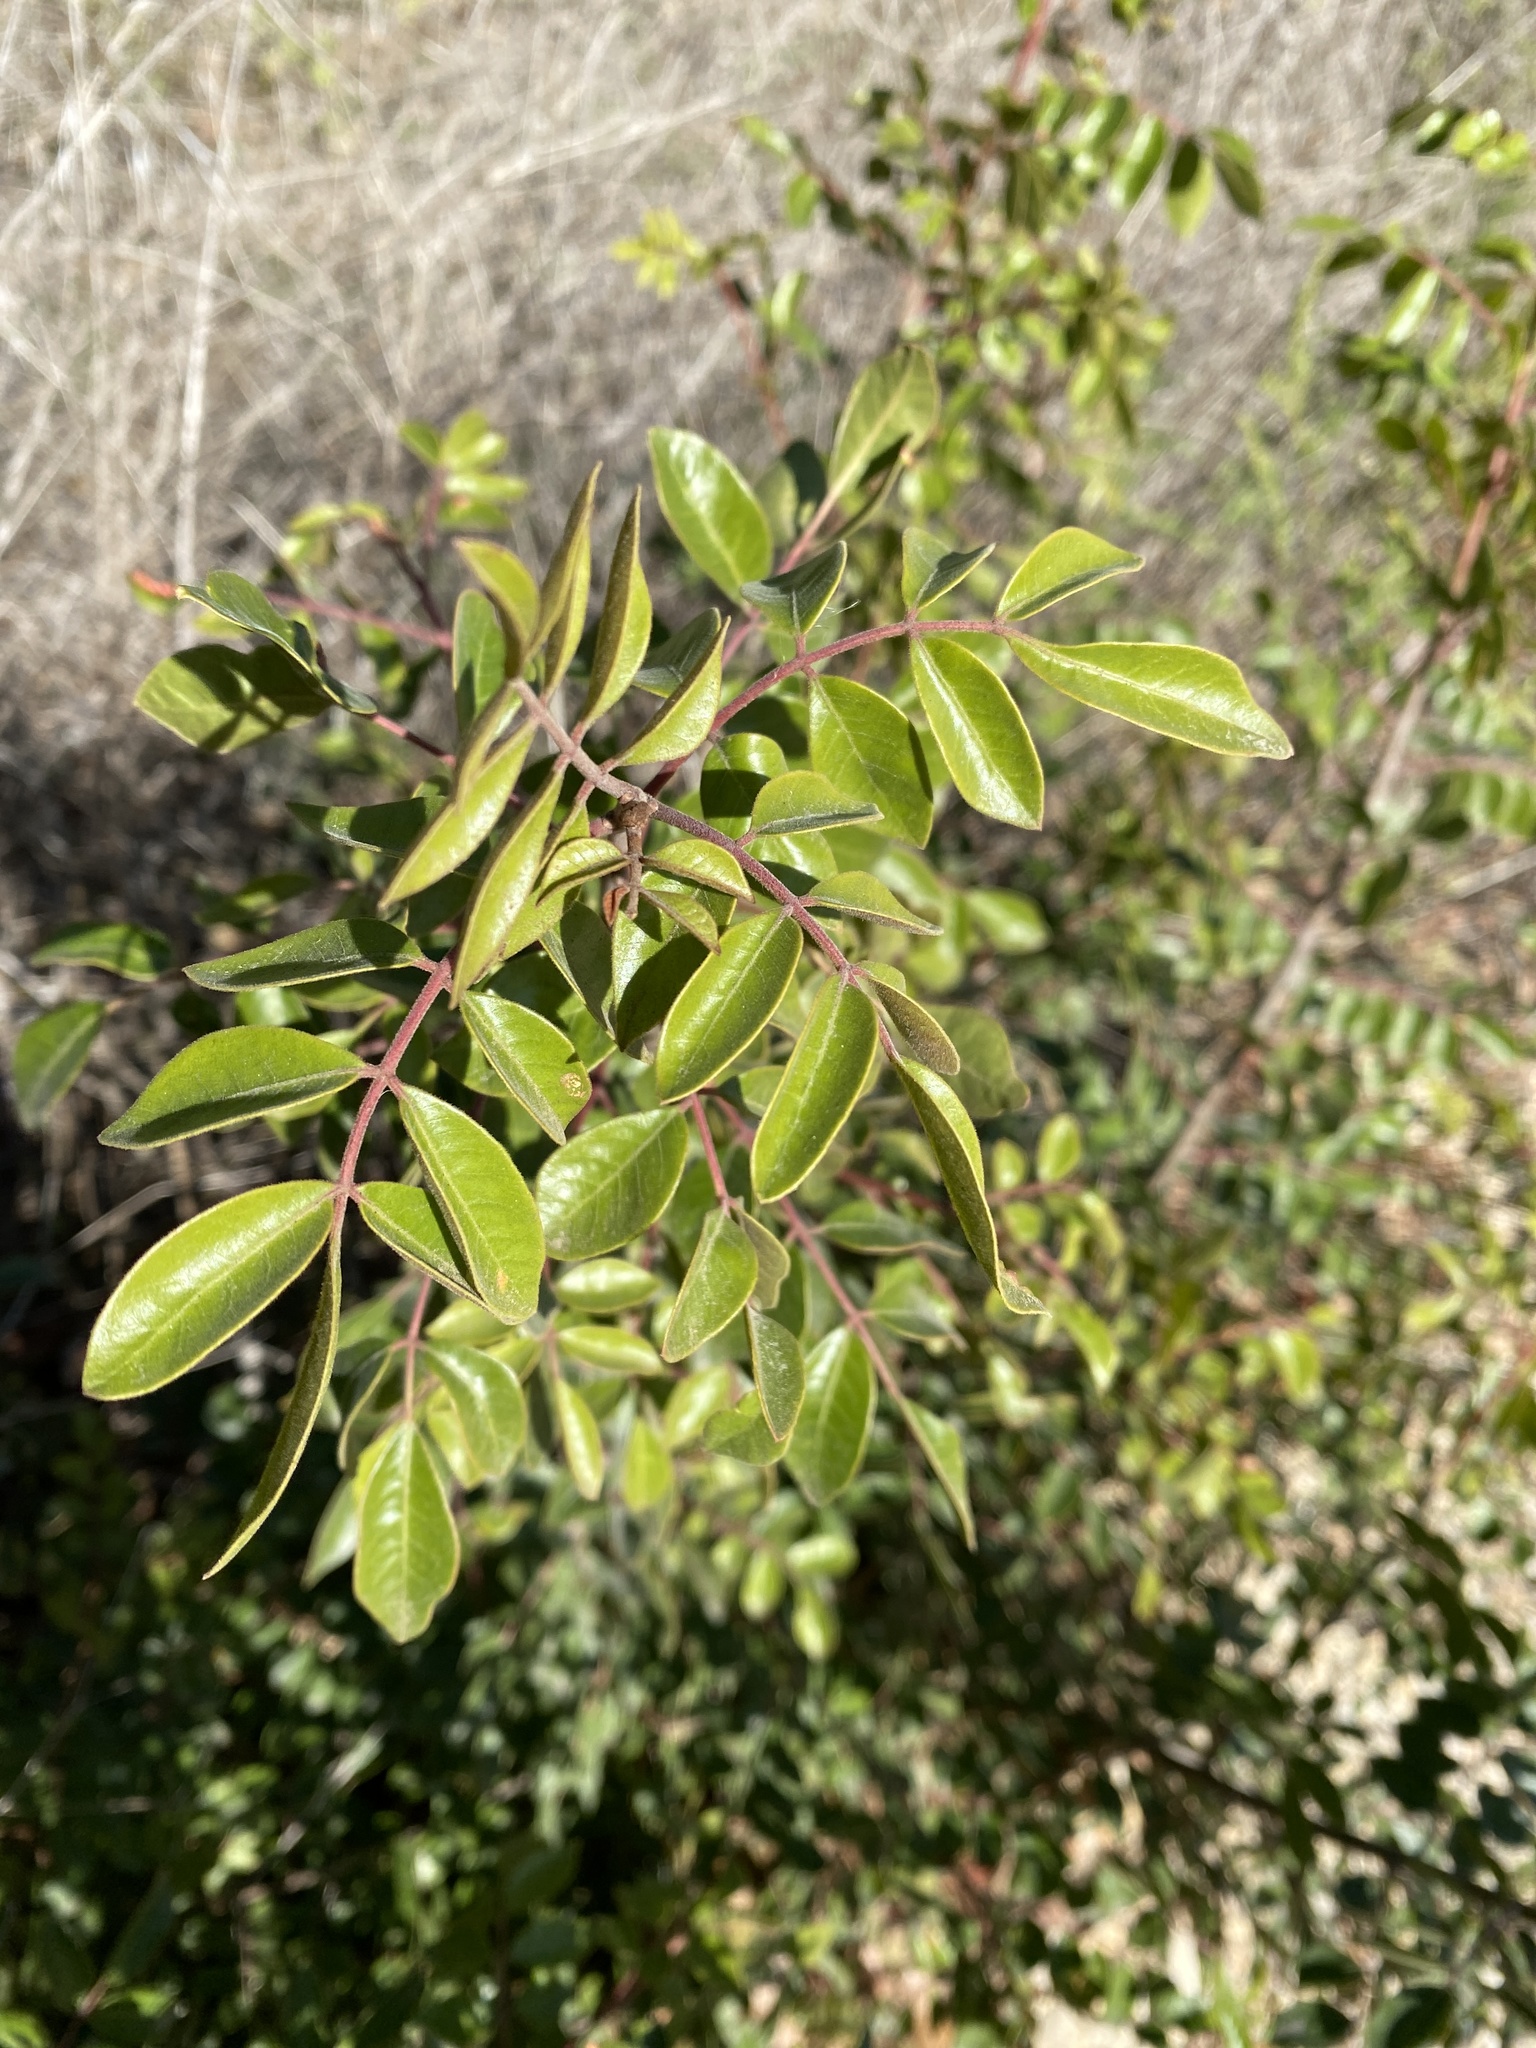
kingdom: Plantae
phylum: Tracheophyta
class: Magnoliopsida
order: Sapindales
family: Anacardiaceae
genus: Rhus
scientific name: Rhus virens
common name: Evergreen sumac
